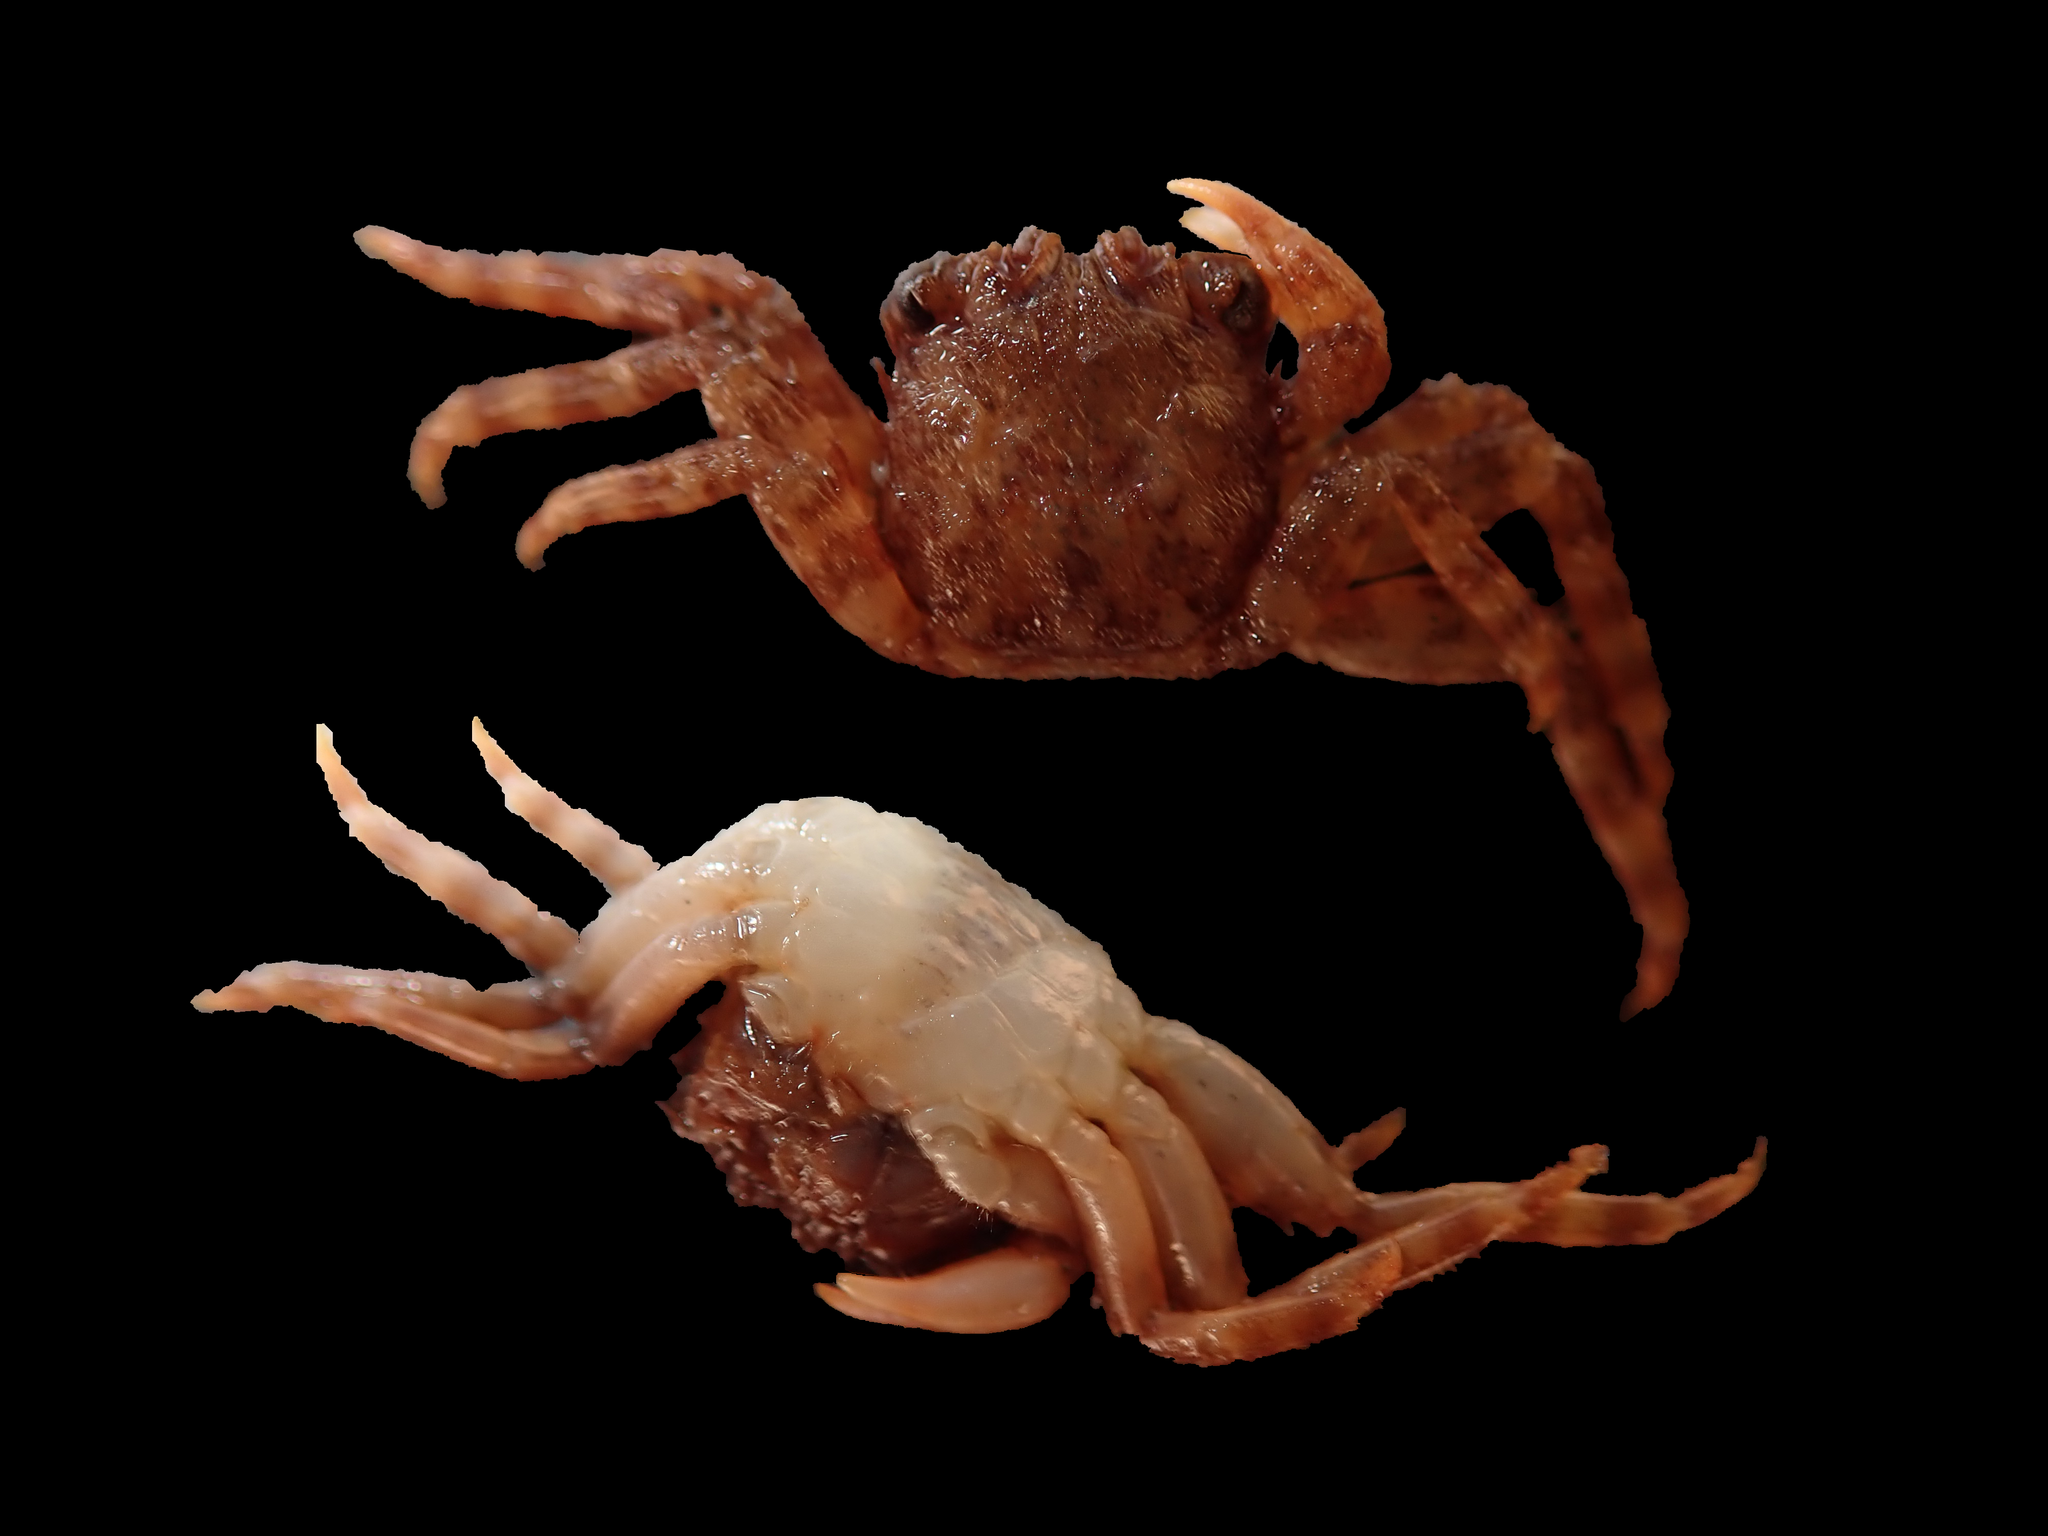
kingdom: Animalia
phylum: Arthropoda
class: Malacostraca
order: Decapoda
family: Plagusiidae
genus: Guinusia
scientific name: Guinusia chabrus
